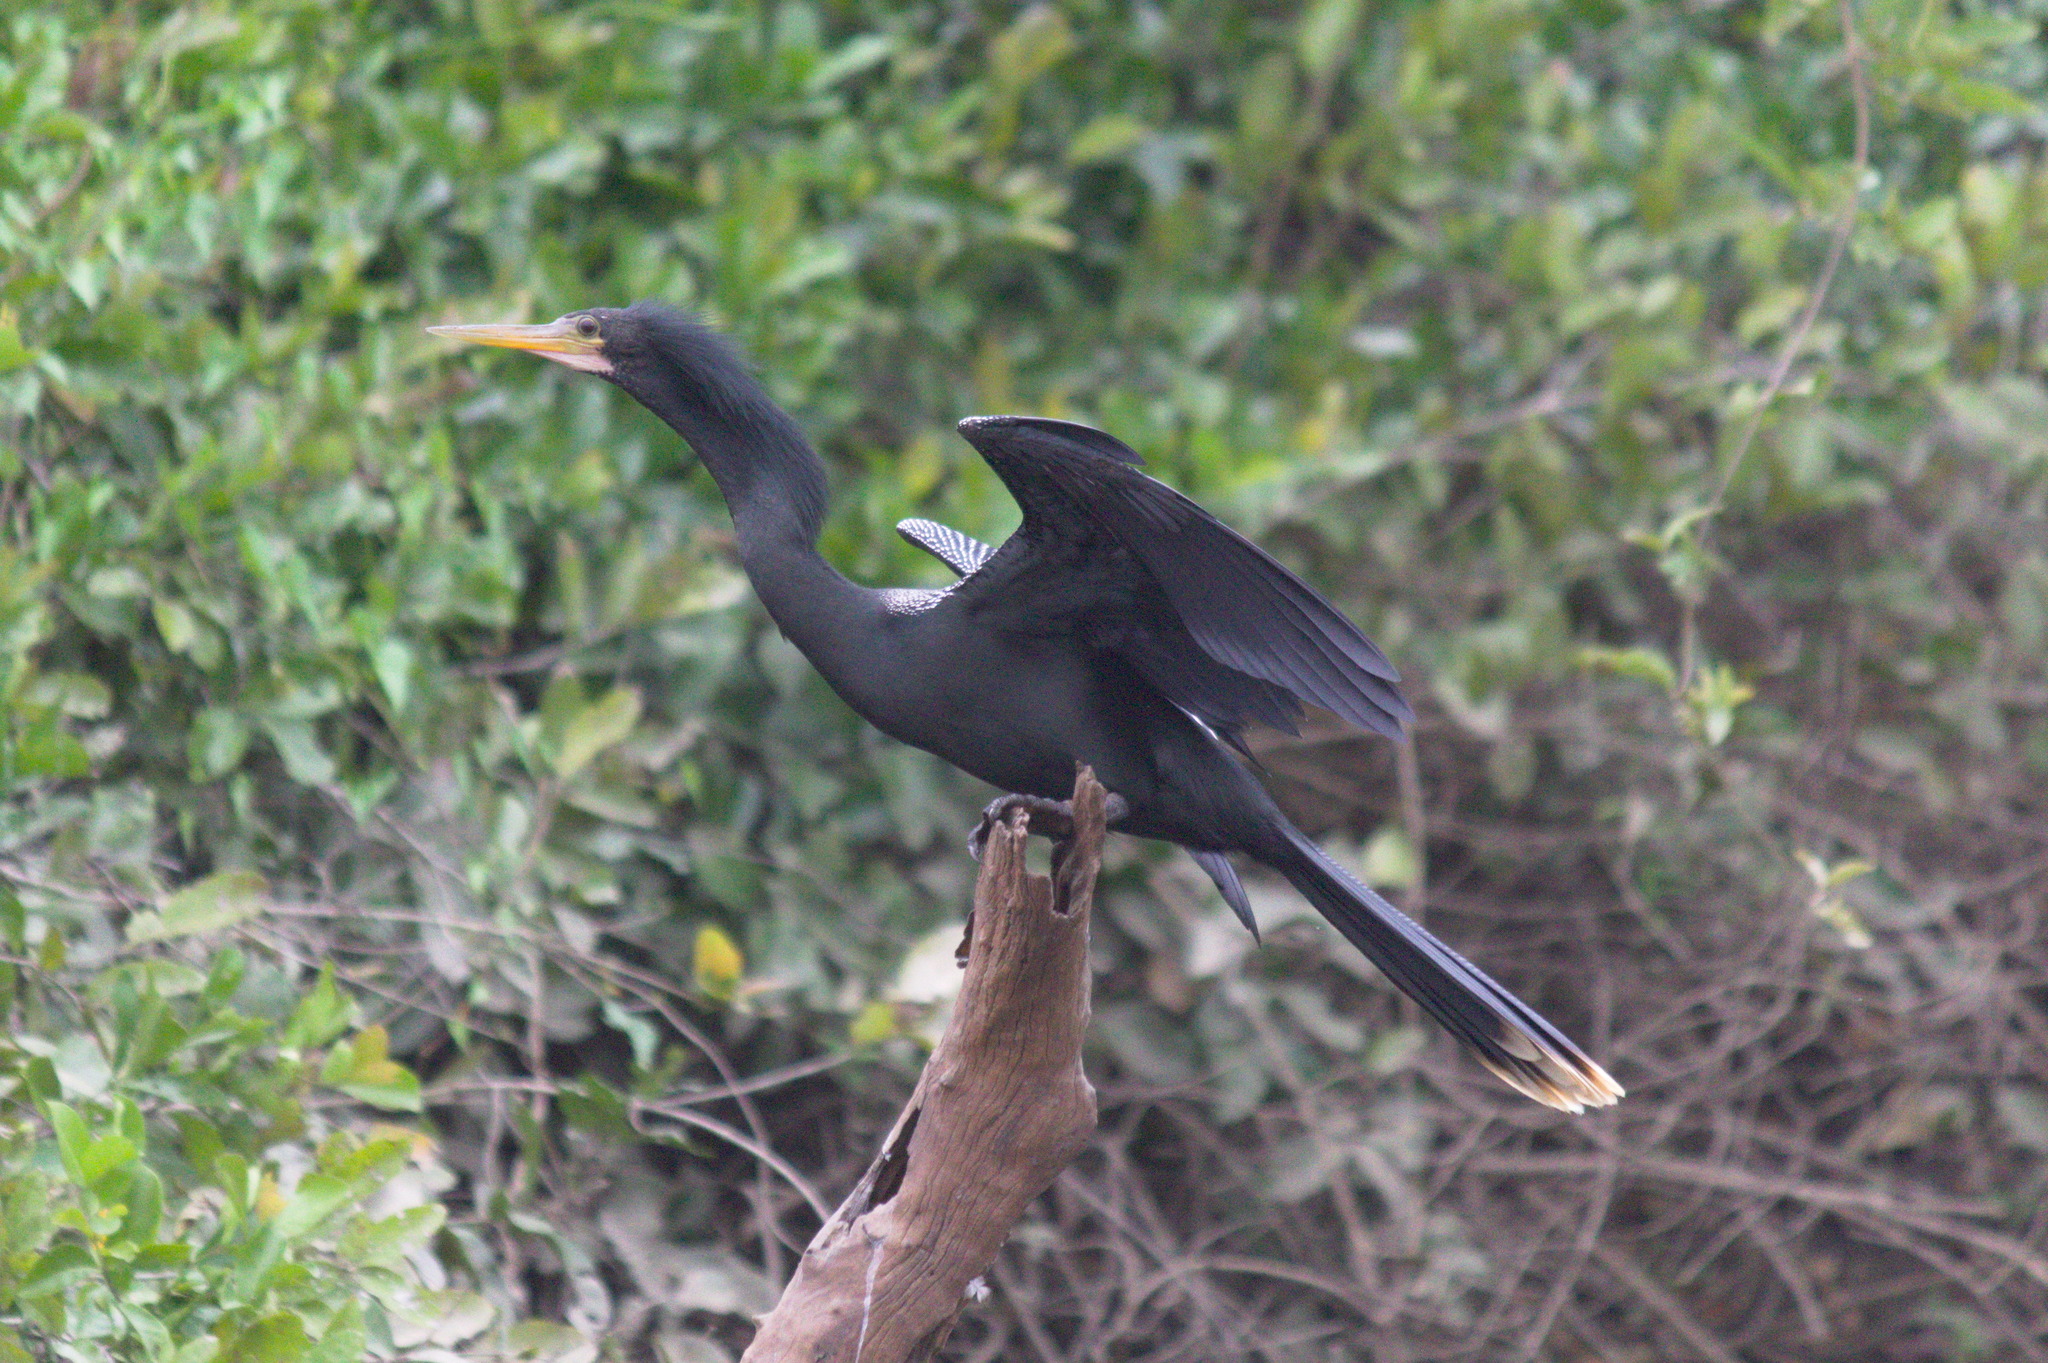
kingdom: Animalia
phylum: Chordata
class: Aves
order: Suliformes
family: Anhingidae
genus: Anhinga
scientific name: Anhinga anhinga
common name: Anhinga
